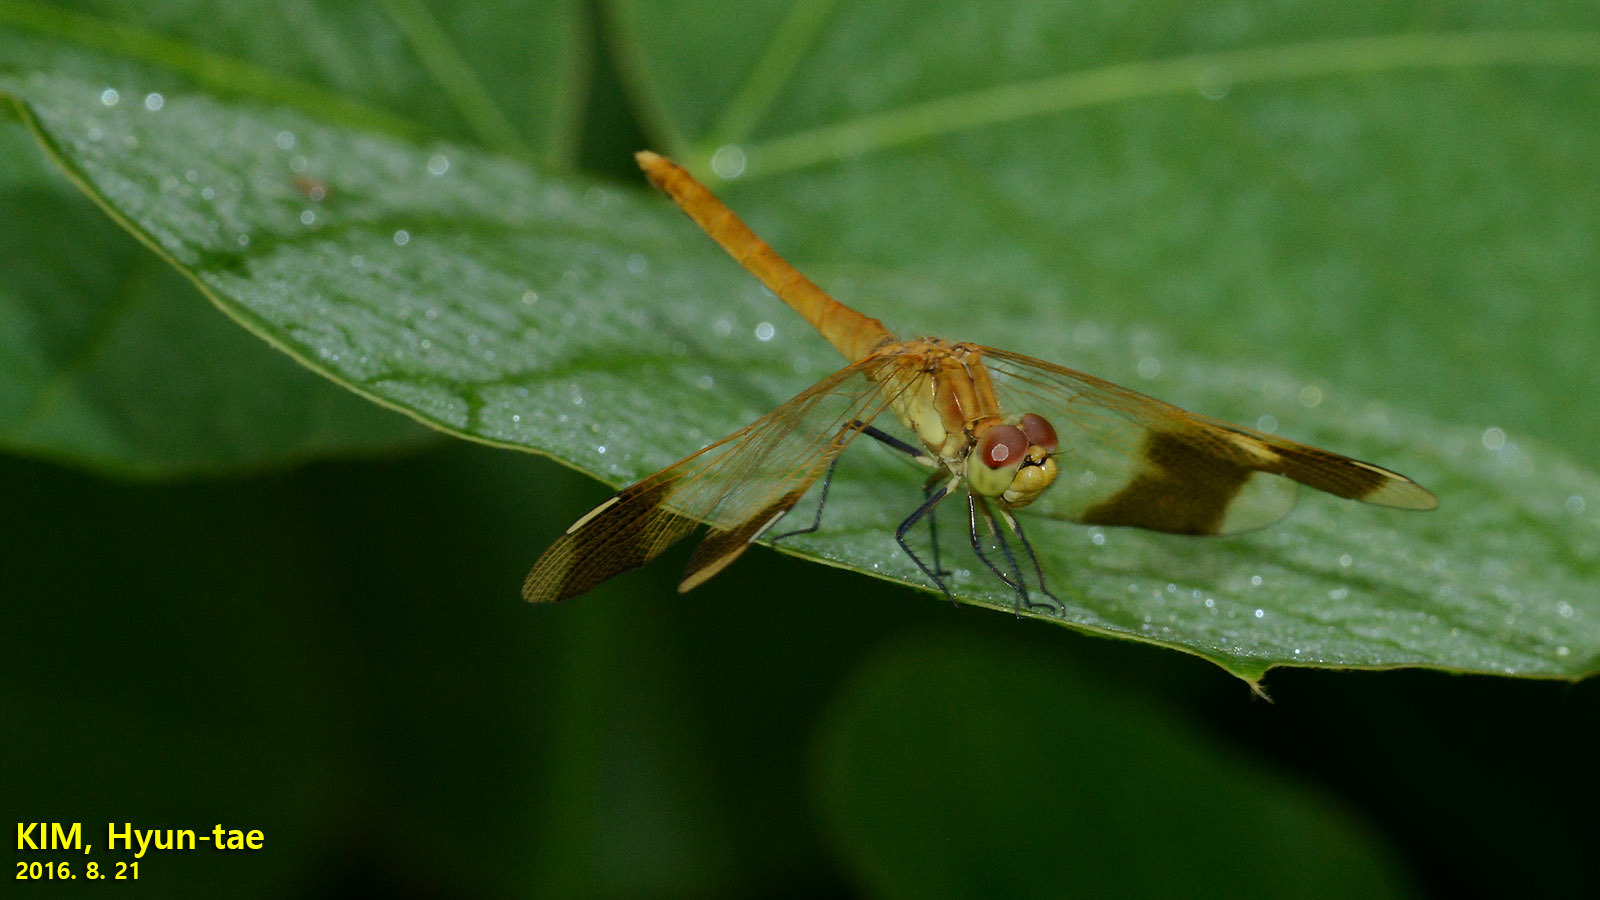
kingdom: Animalia
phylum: Arthropoda
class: Insecta
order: Odonata
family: Libellulidae
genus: Sympetrum
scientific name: Sympetrum pedemontanum
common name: Banded darter
